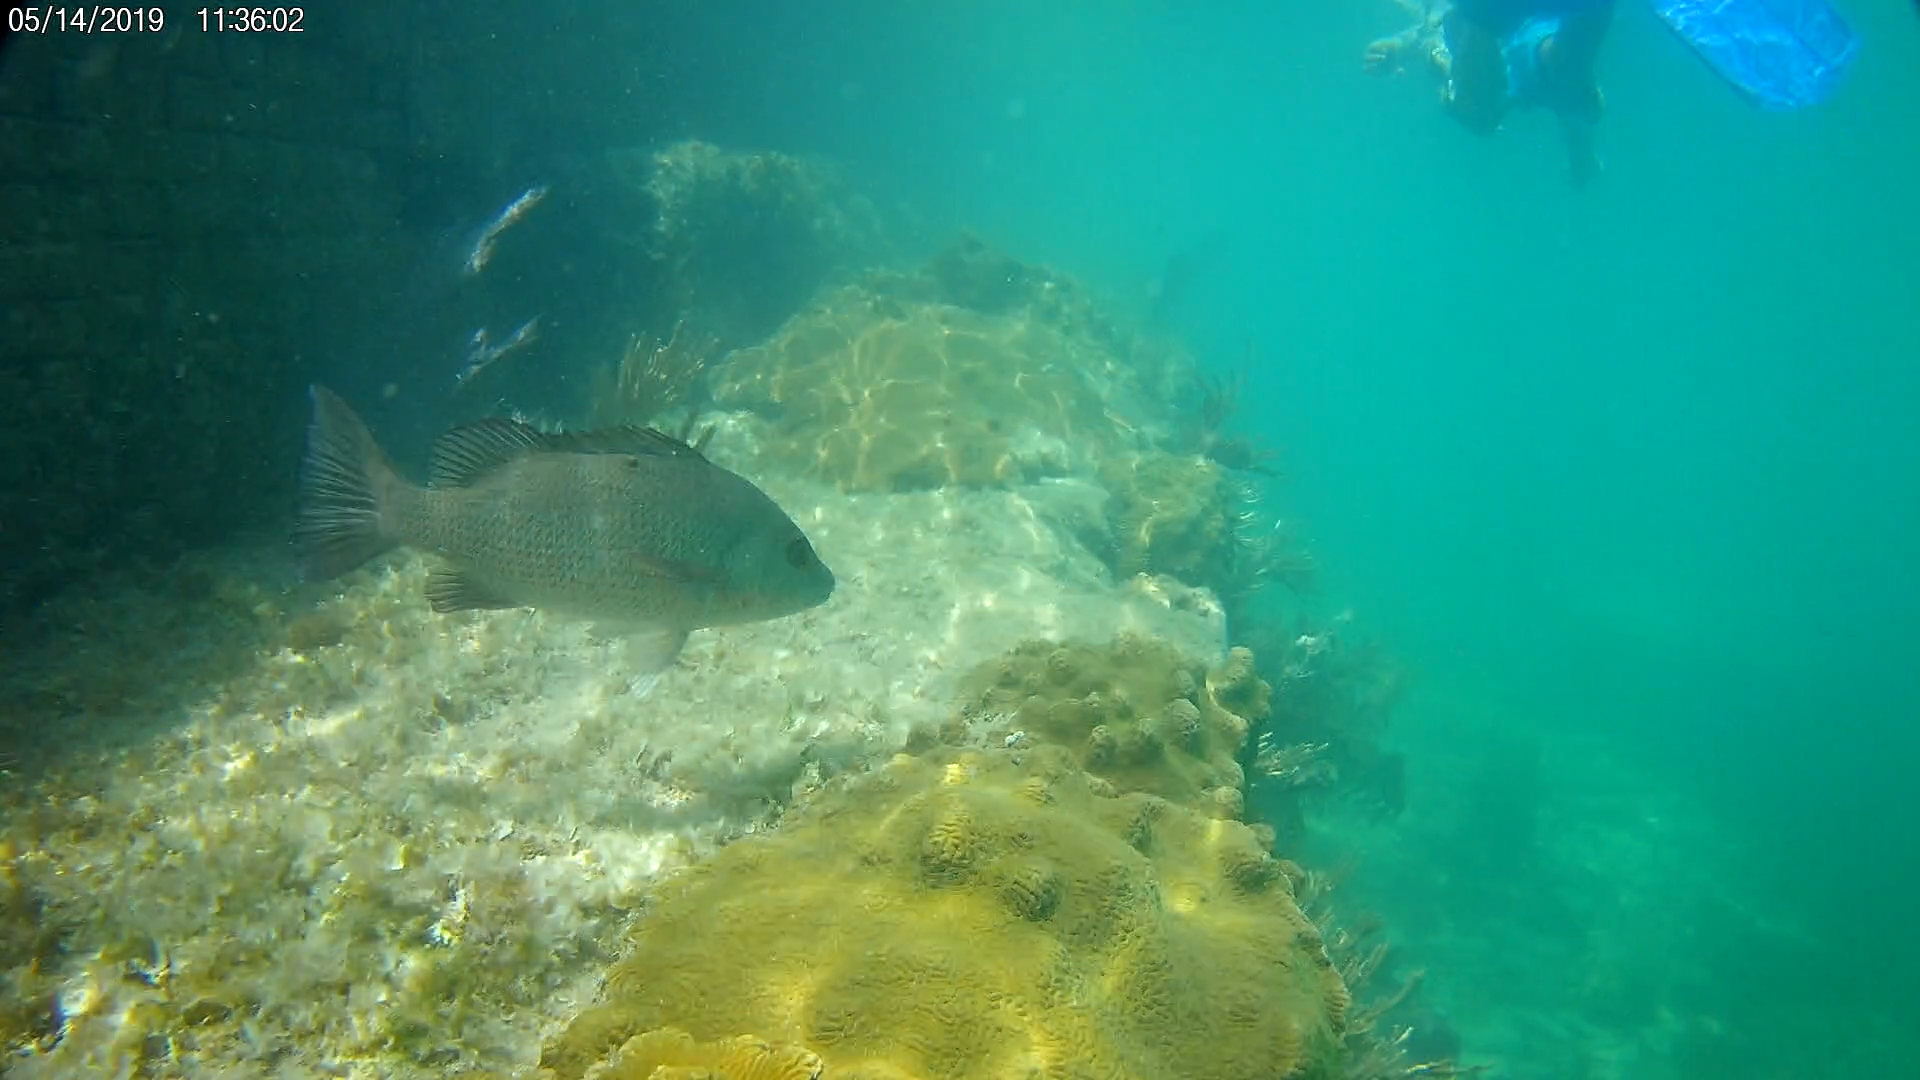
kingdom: Animalia
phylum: Chordata
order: Perciformes
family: Lutjanidae
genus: Lutjanus
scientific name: Lutjanus griseus
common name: Gray snapper
